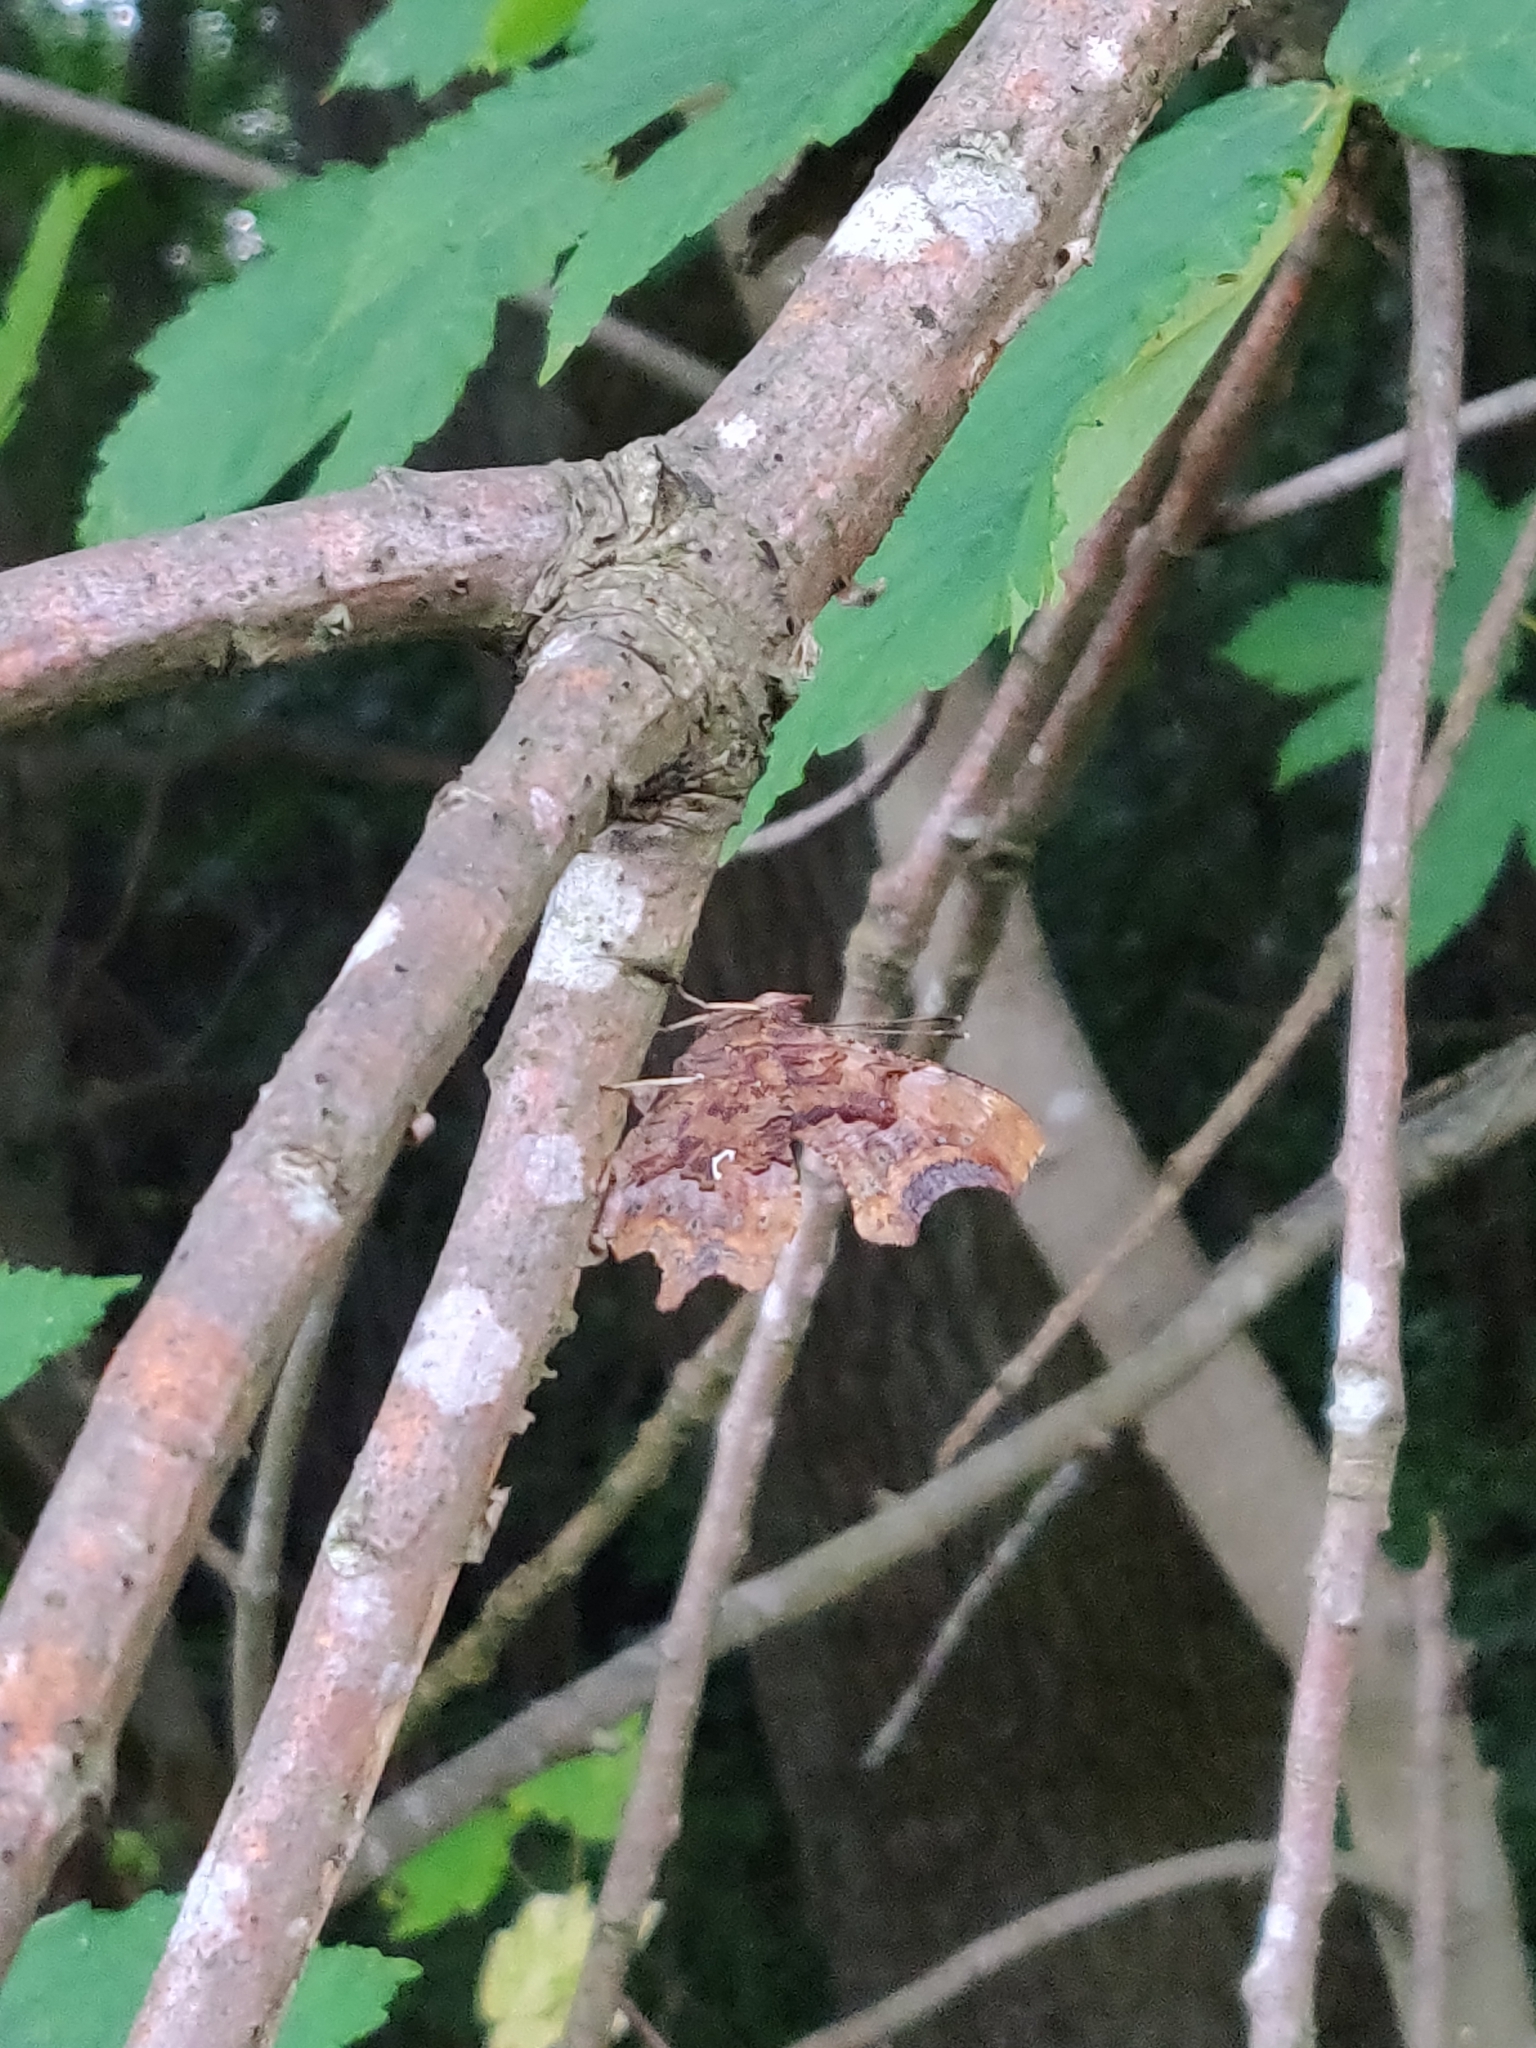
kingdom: Animalia
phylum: Arthropoda
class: Insecta
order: Lepidoptera
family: Nymphalidae
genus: Polygonia
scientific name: Polygonia c-album
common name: Comma
